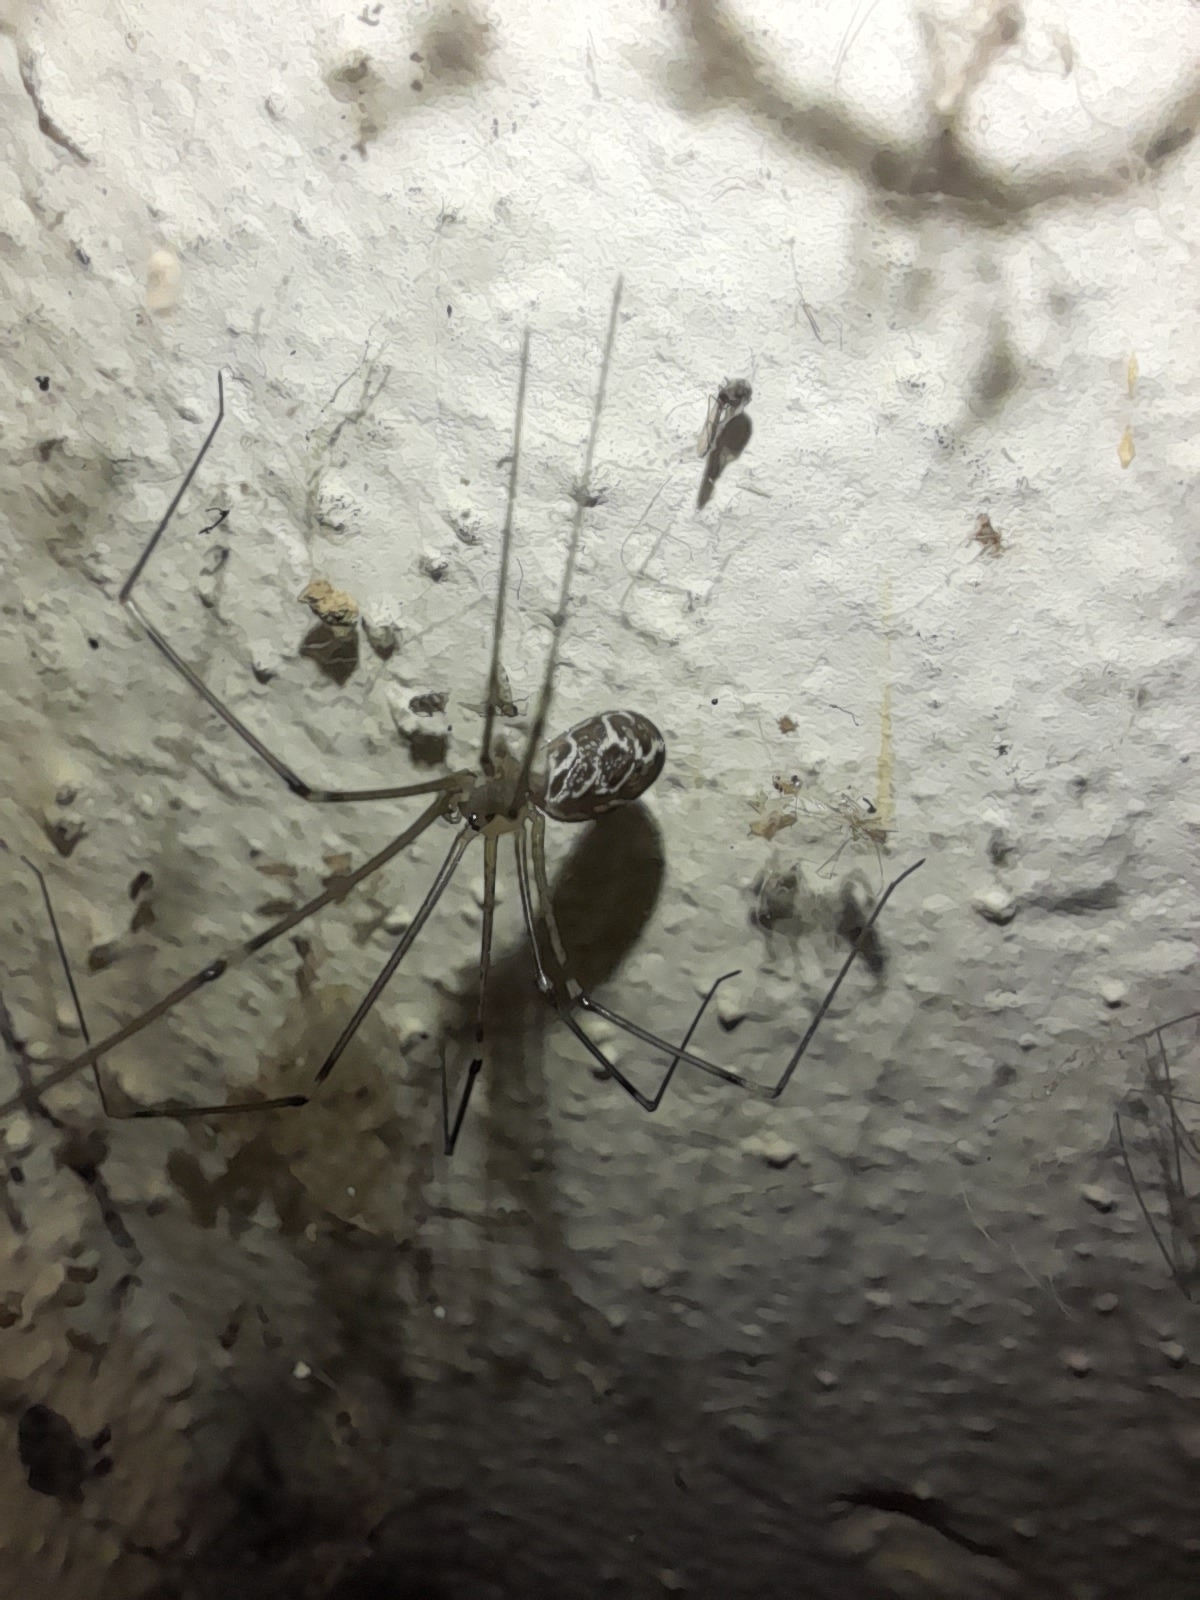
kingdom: Animalia
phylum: Arthropoda
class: Arachnida
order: Araneae
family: Pholcidae
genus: Holocnemus
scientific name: Holocnemus pluchei
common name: Marbled cellar spider
